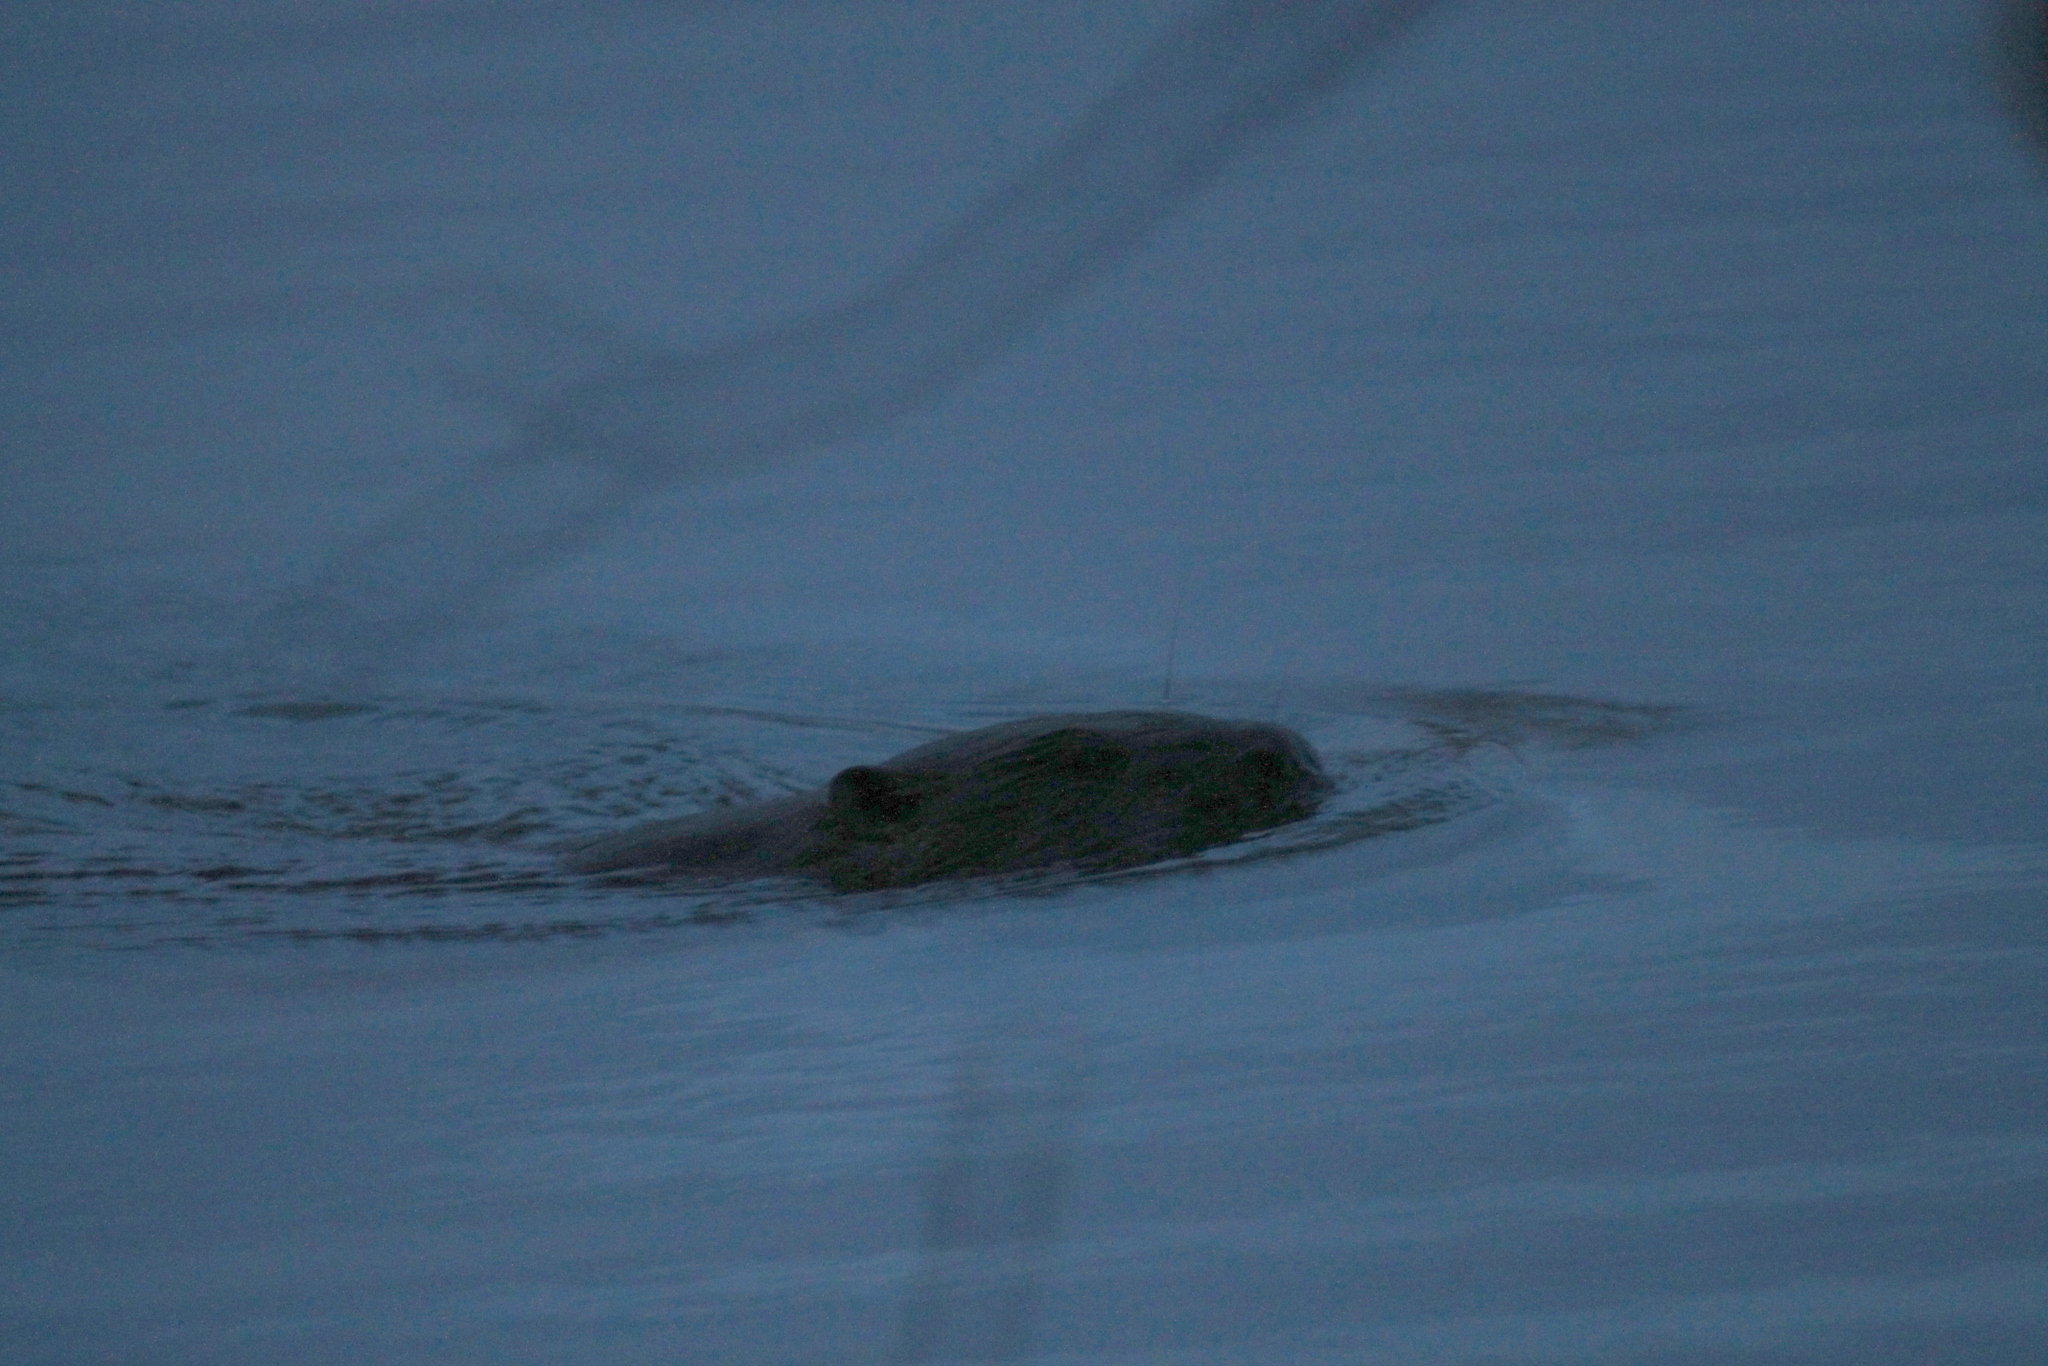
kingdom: Animalia
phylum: Chordata
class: Mammalia
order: Rodentia
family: Castoridae
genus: Castor
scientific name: Castor fiber
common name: Eurasian beaver
